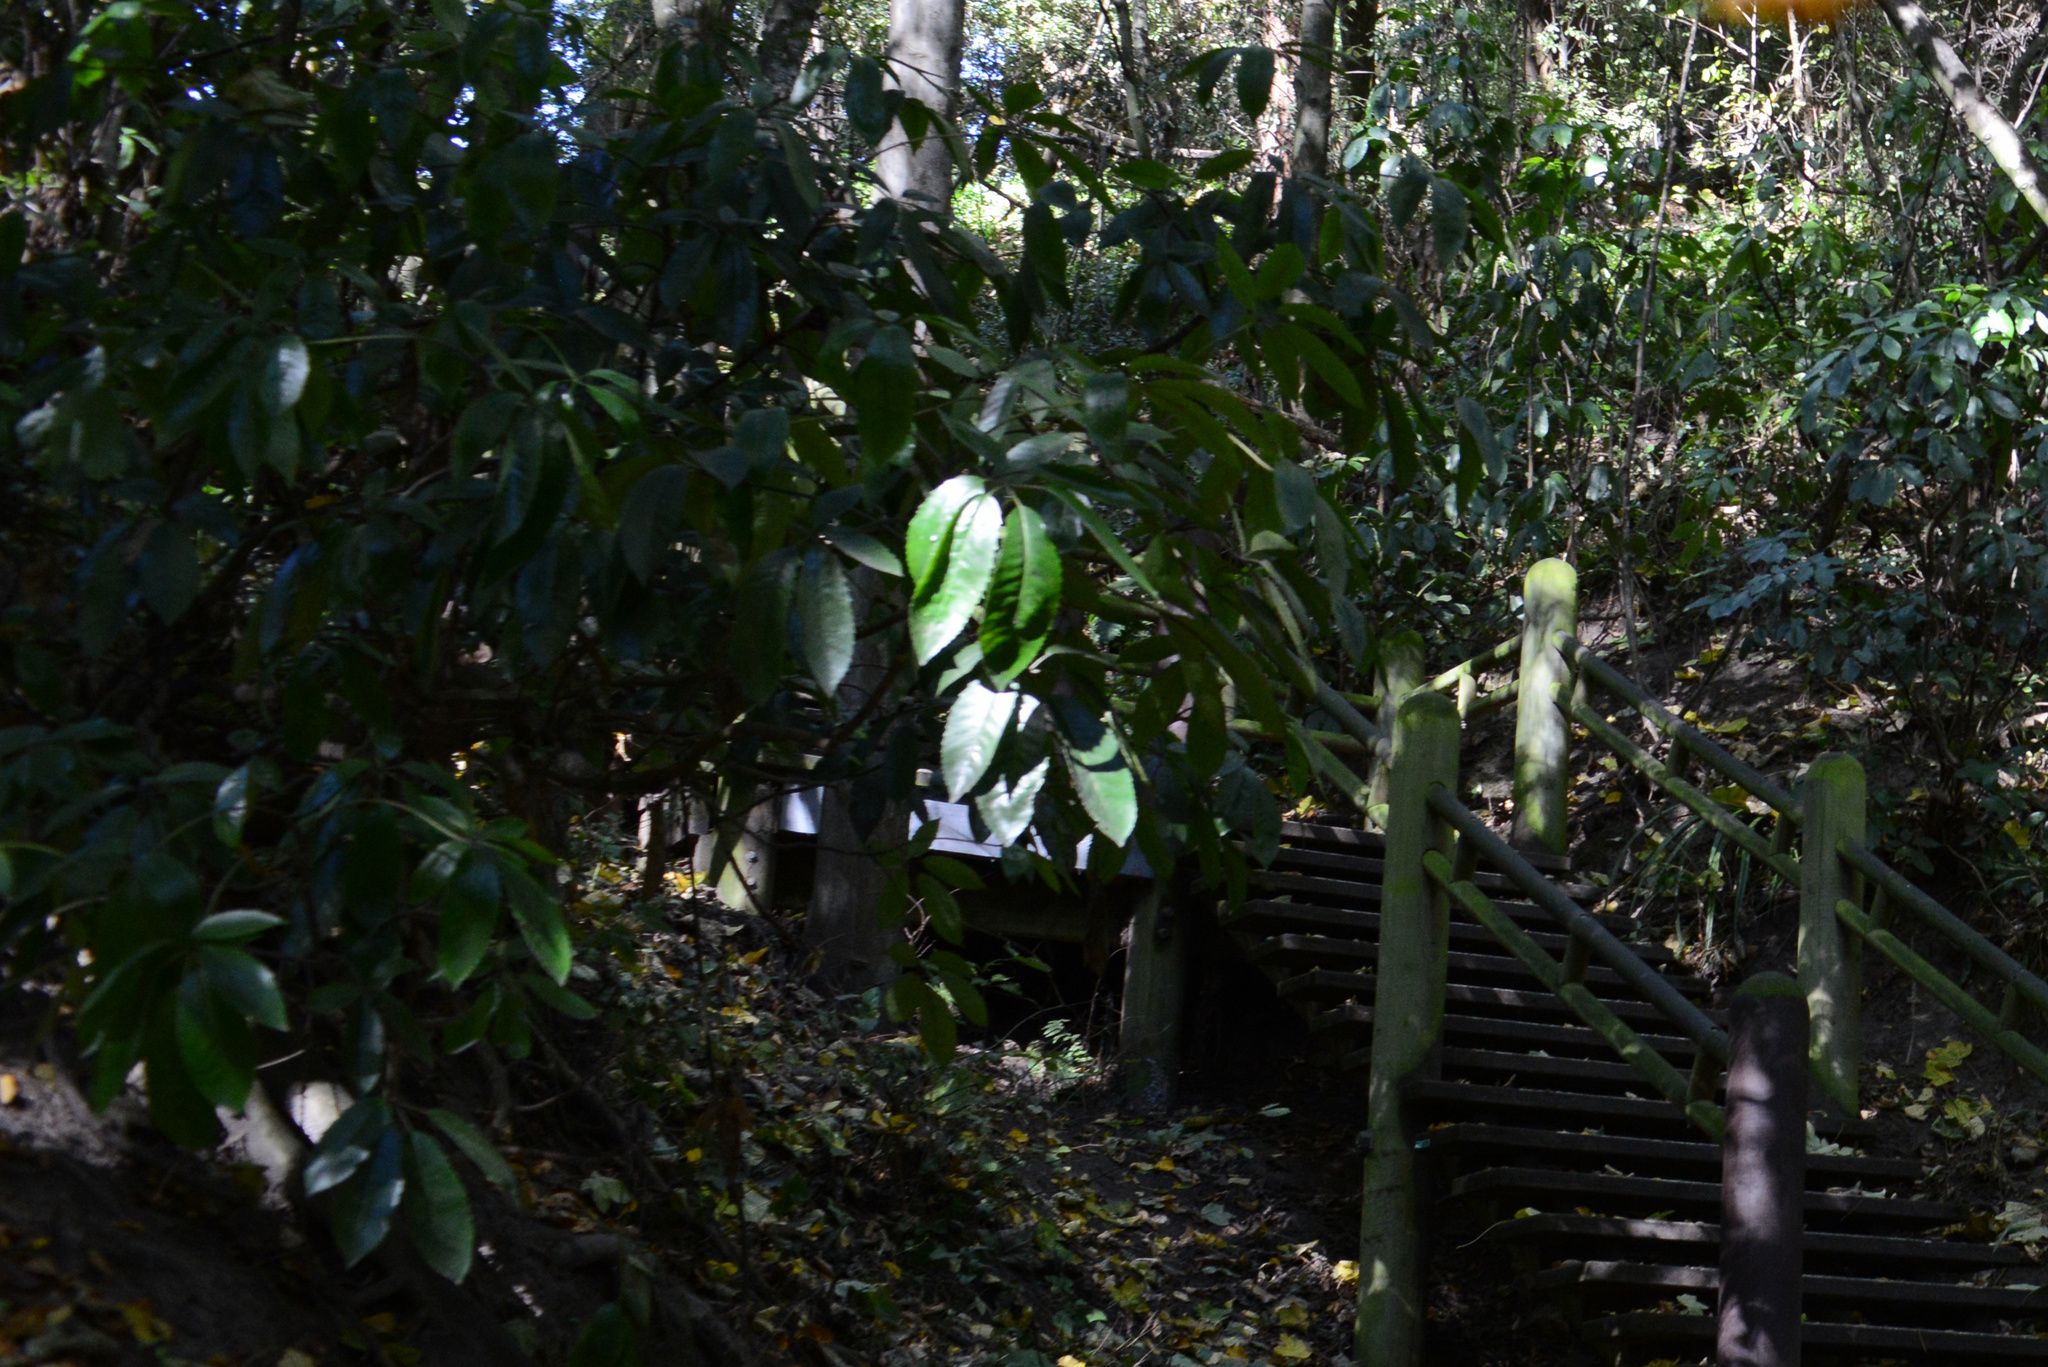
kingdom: Plantae
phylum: Tracheophyta
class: Magnoliopsida
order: Apiales
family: Araliaceae
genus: Neopanax
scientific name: Neopanax arboreus
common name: Five-fingers
